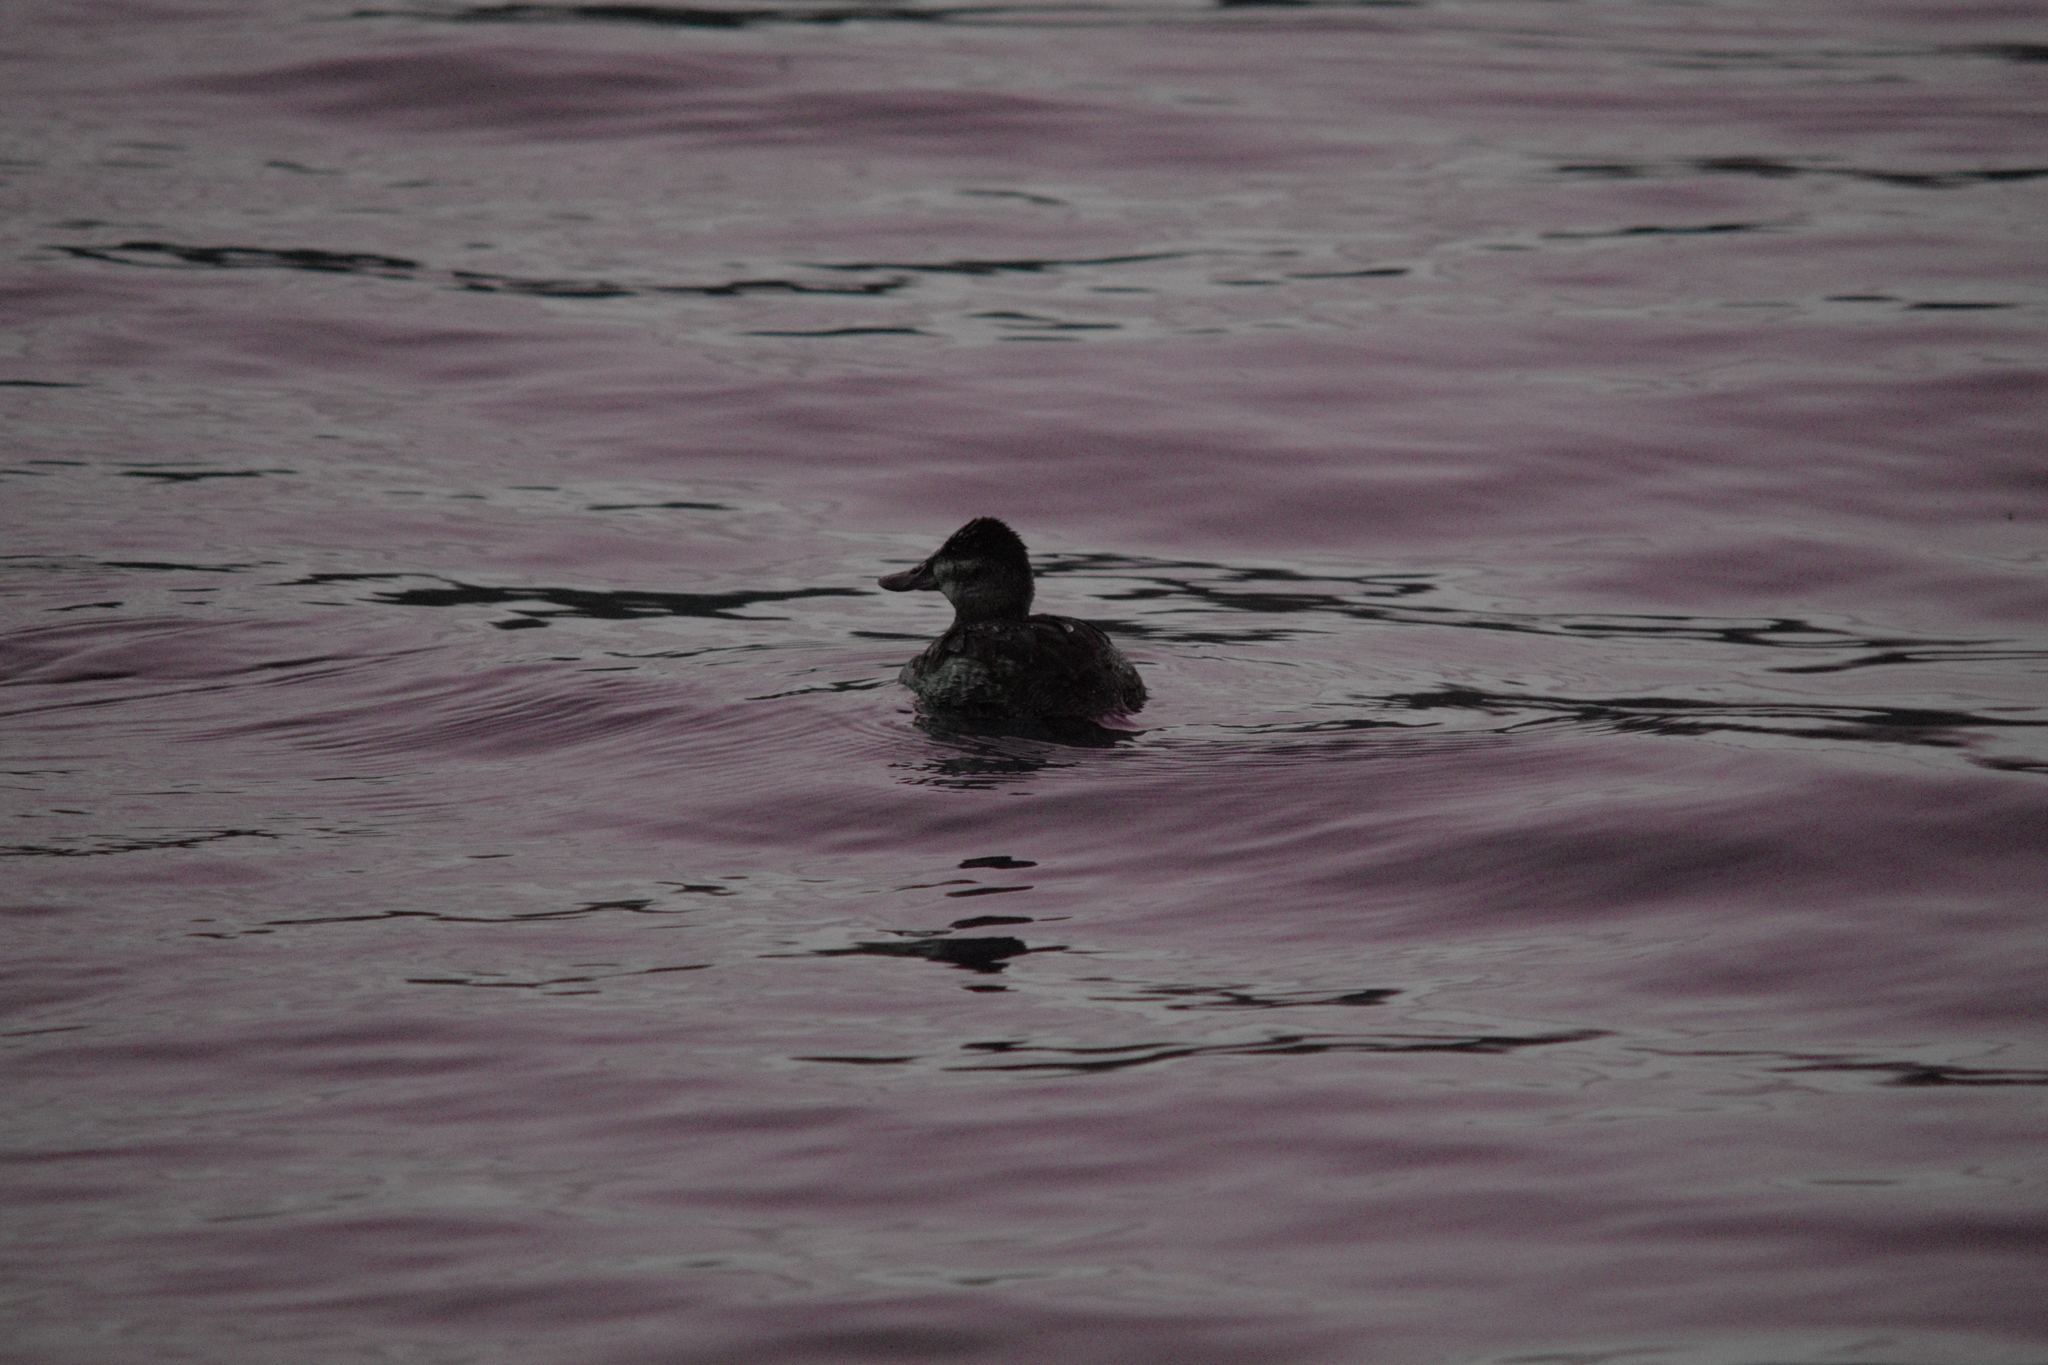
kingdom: Animalia
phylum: Chordata
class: Aves
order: Anseriformes
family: Anatidae
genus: Oxyura
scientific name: Oxyura jamaicensis
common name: Ruddy duck
